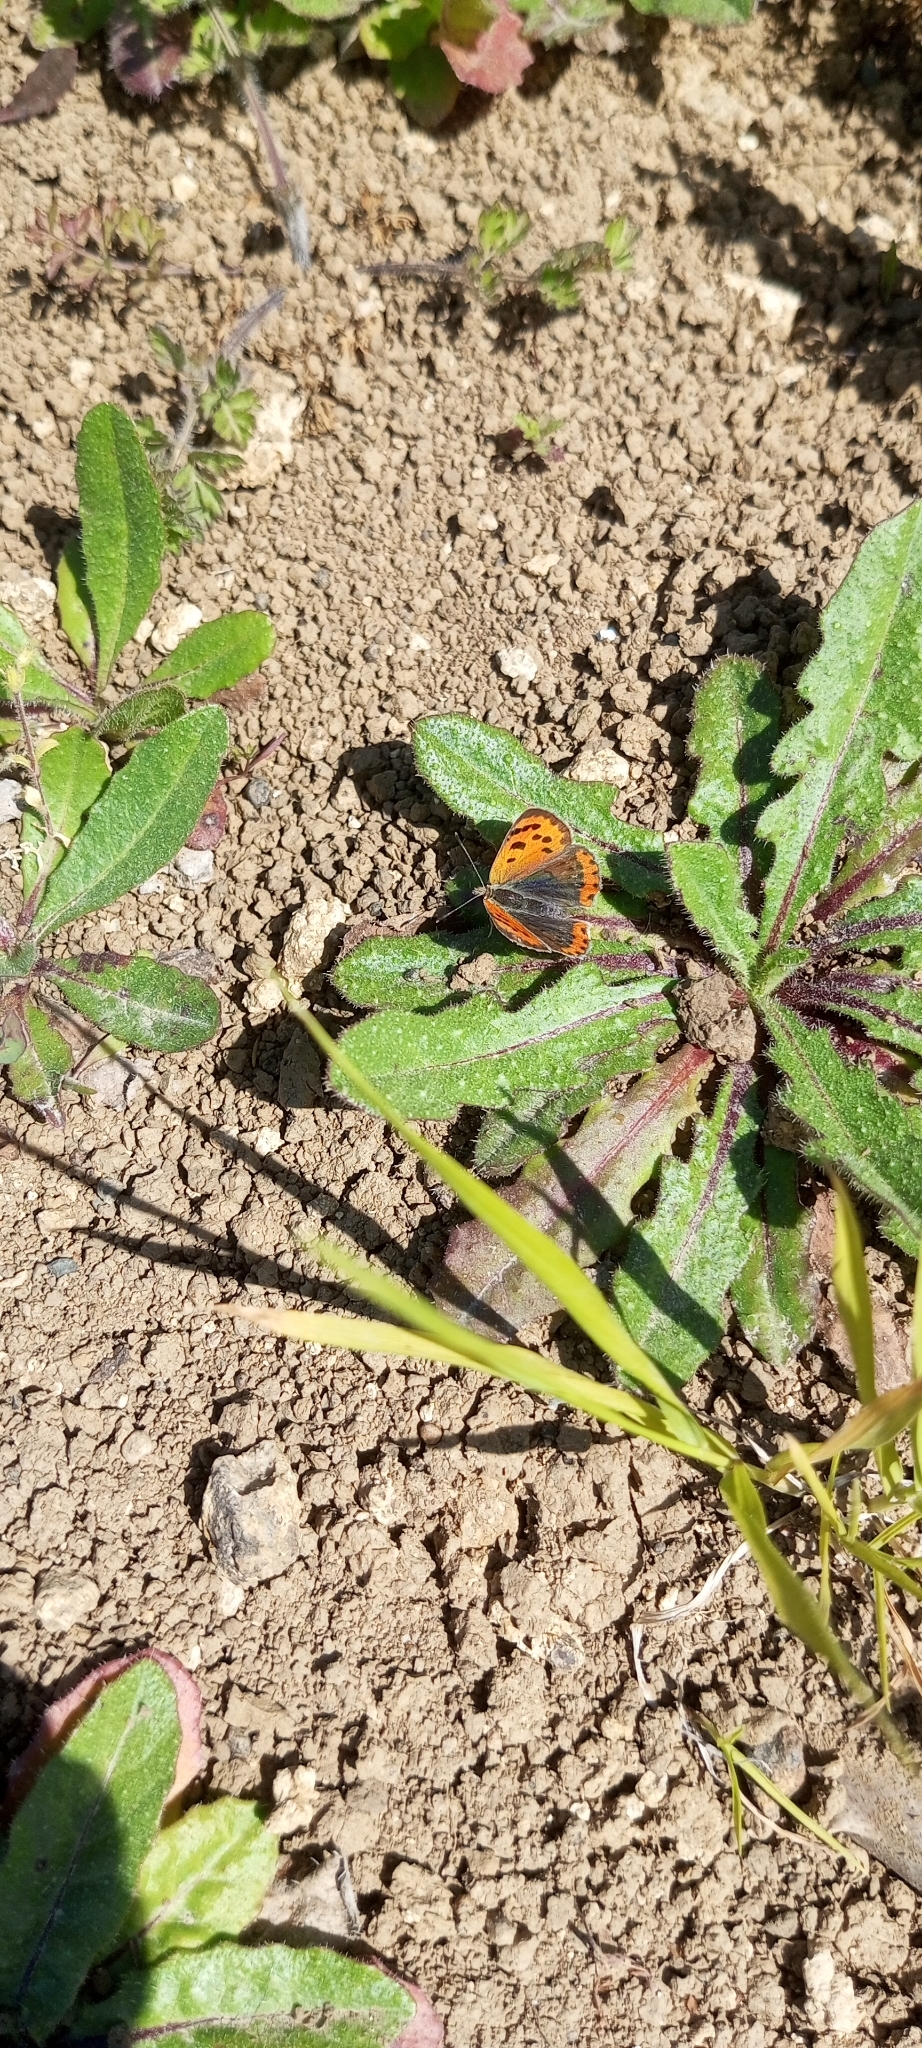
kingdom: Animalia
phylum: Arthropoda
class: Insecta
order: Lepidoptera
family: Lycaenidae
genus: Lycaena
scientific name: Lycaena phlaeas
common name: Small copper
